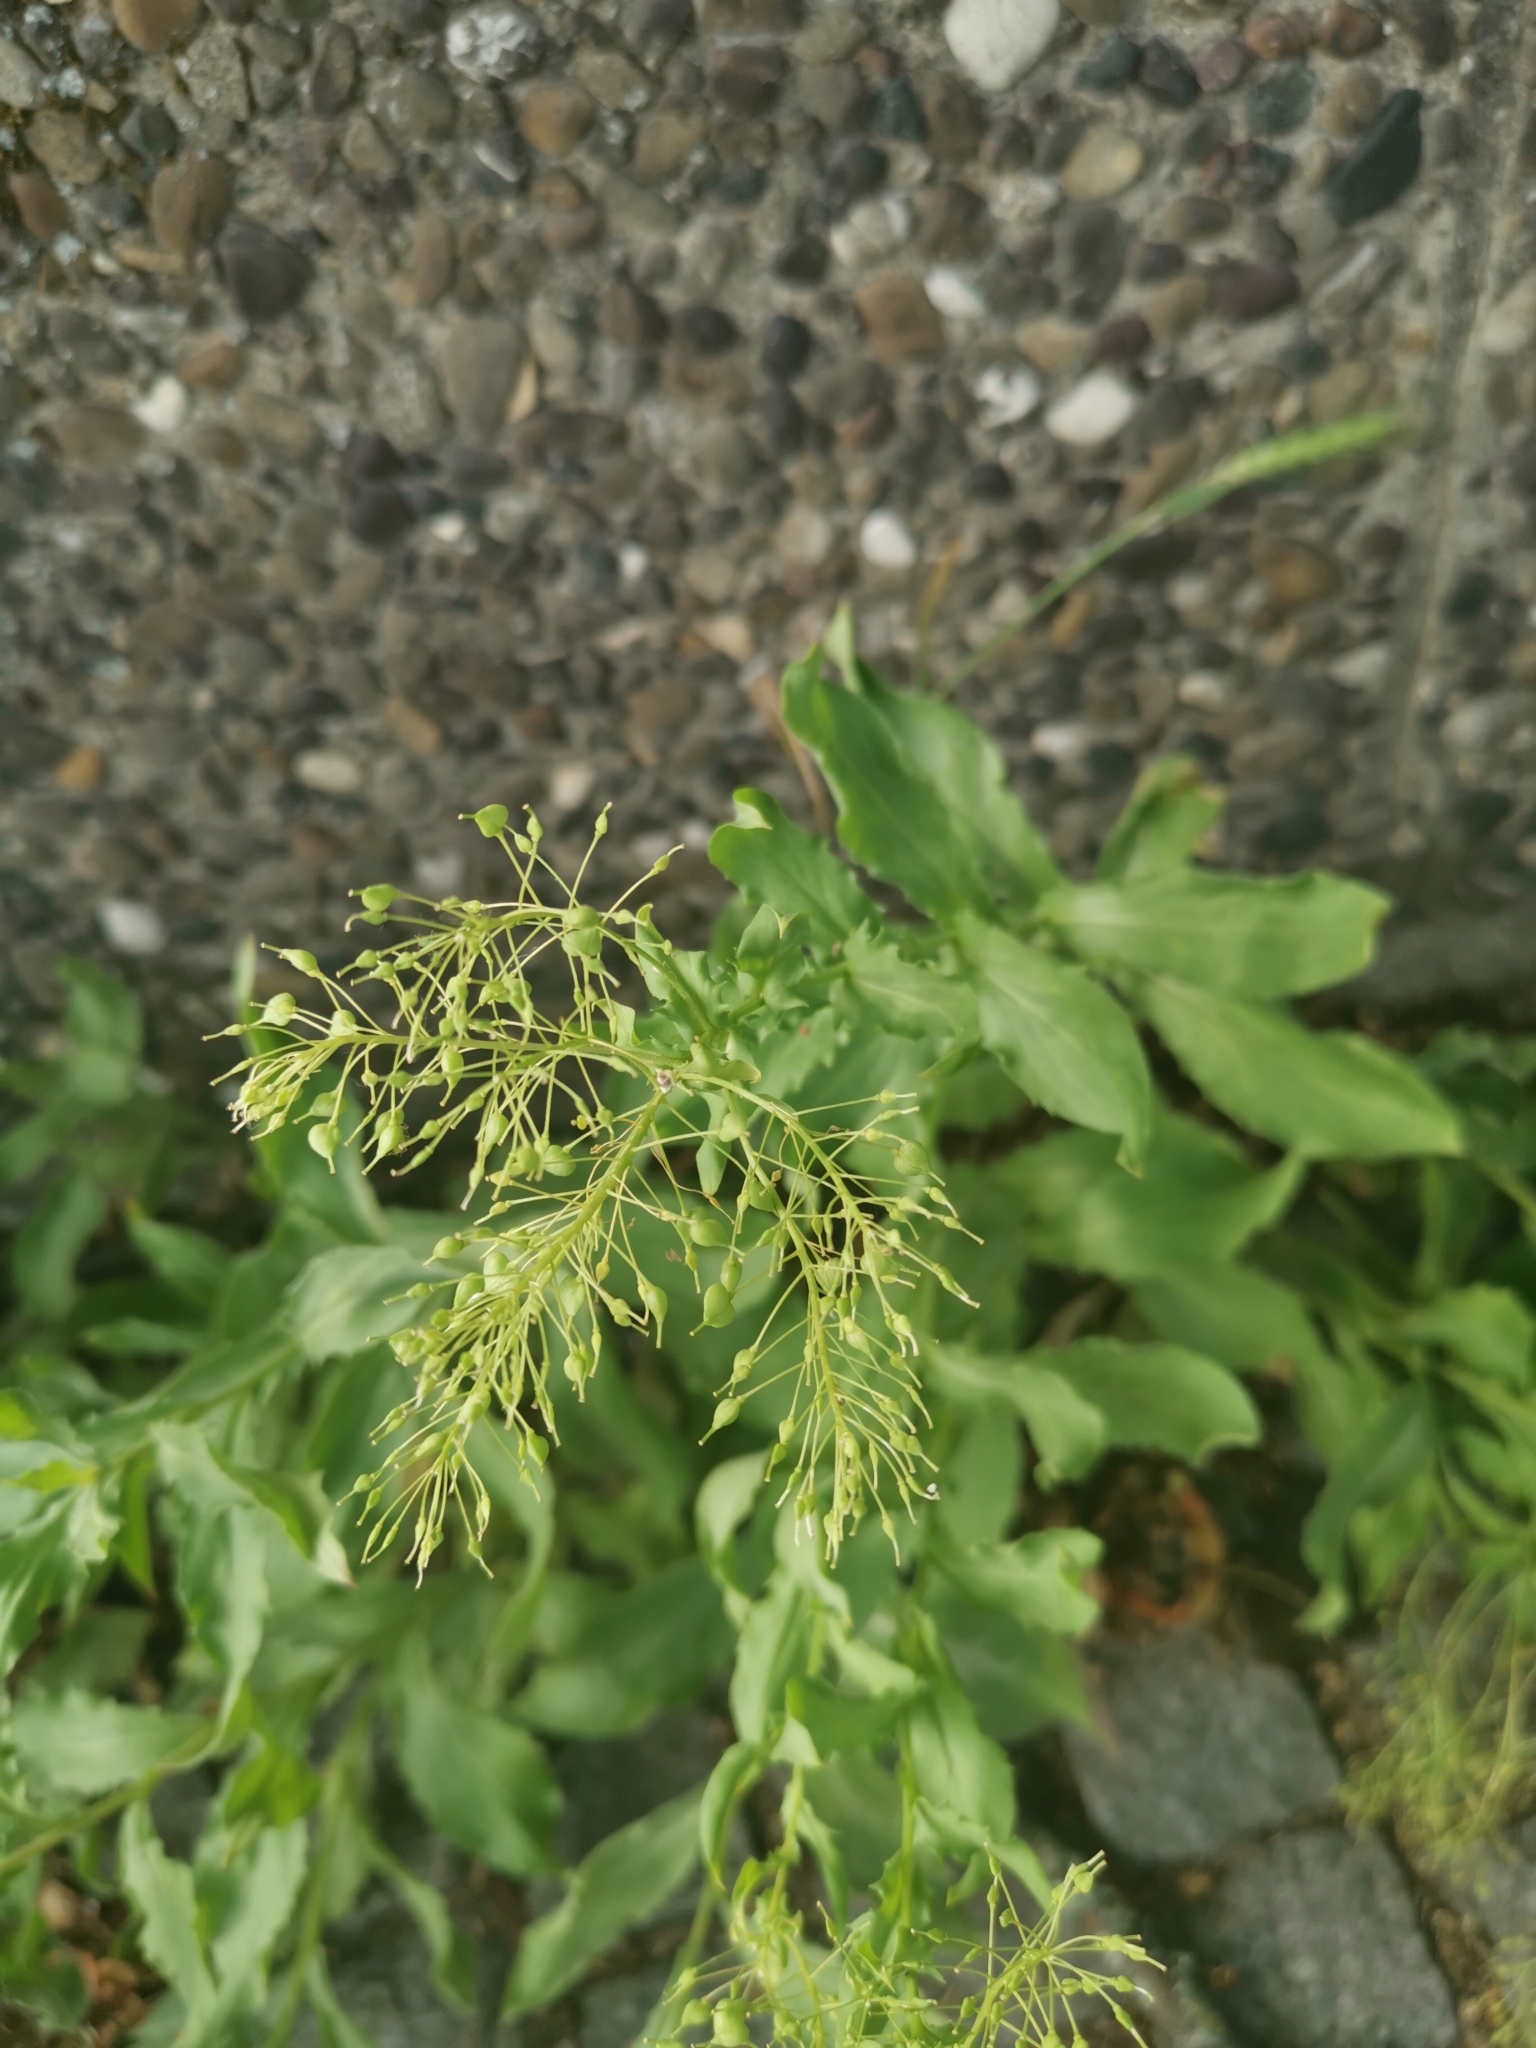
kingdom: Plantae
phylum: Tracheophyta
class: Magnoliopsida
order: Brassicales
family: Brassicaceae
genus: Lepidium
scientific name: Lepidium draba
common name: Hoary cress
